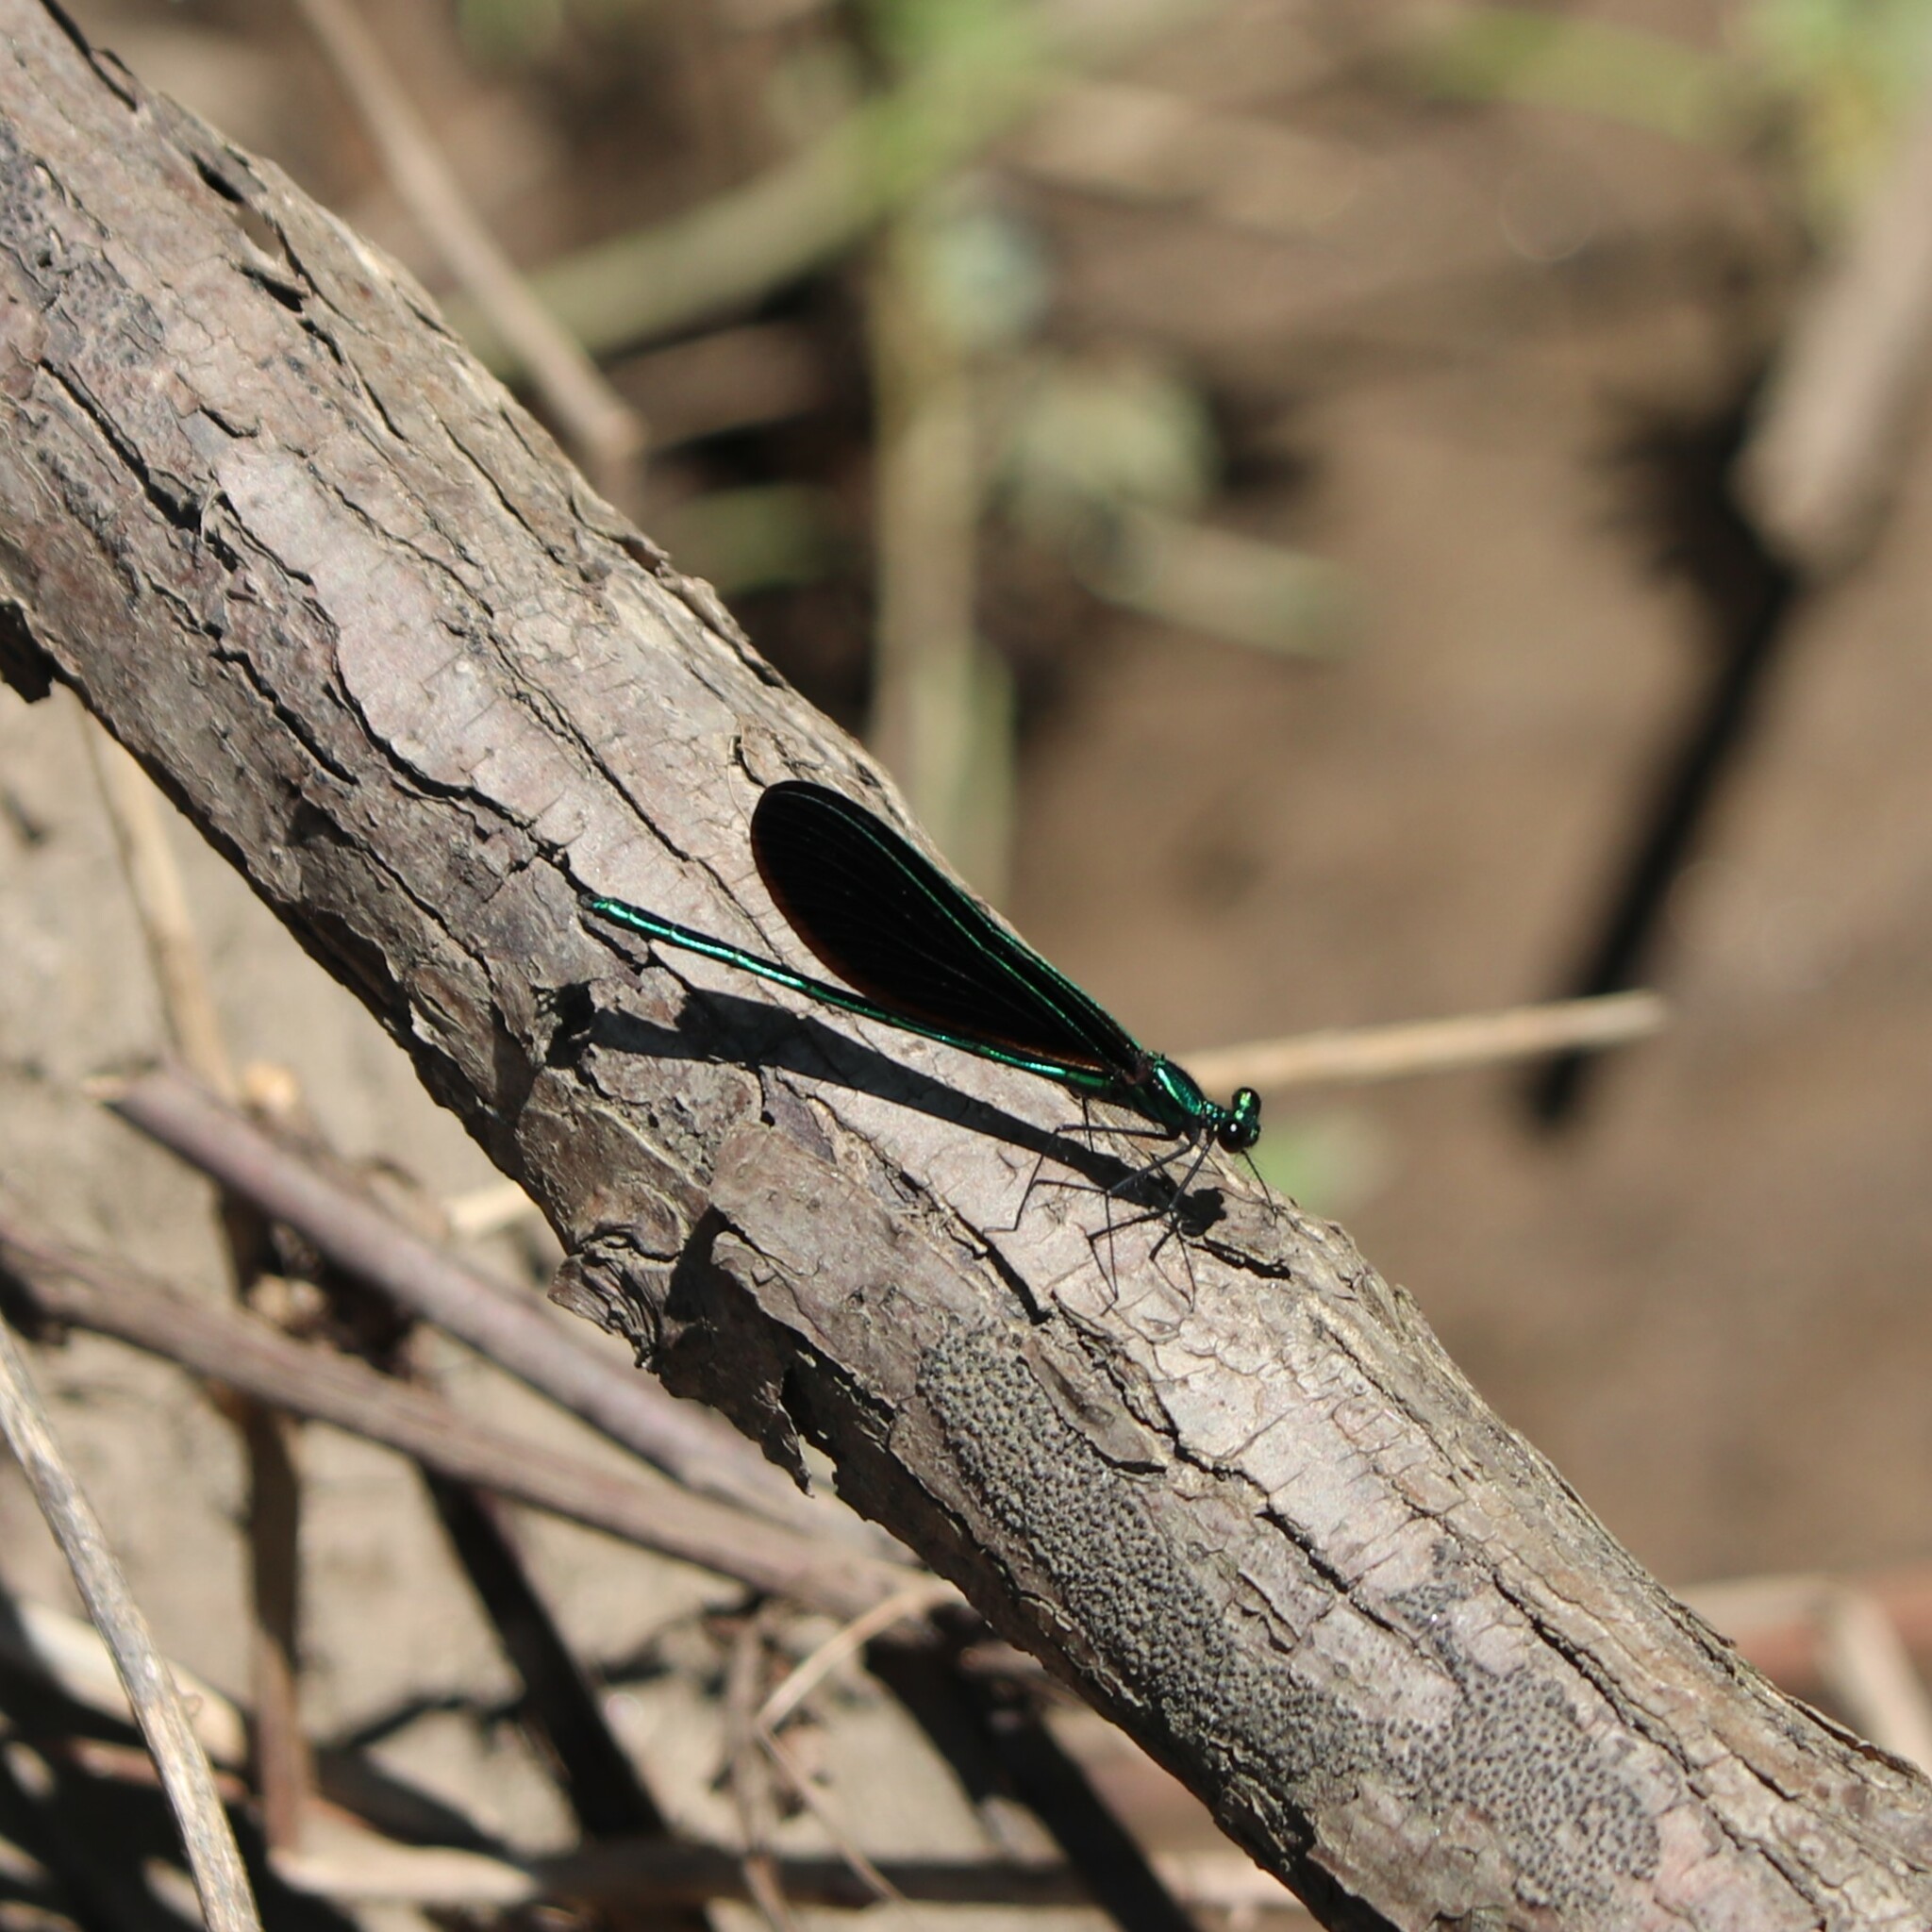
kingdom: Animalia
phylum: Arthropoda
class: Insecta
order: Odonata
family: Calopterygidae
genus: Calopteryx
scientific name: Calopteryx maculata
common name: Ebony jewelwing
